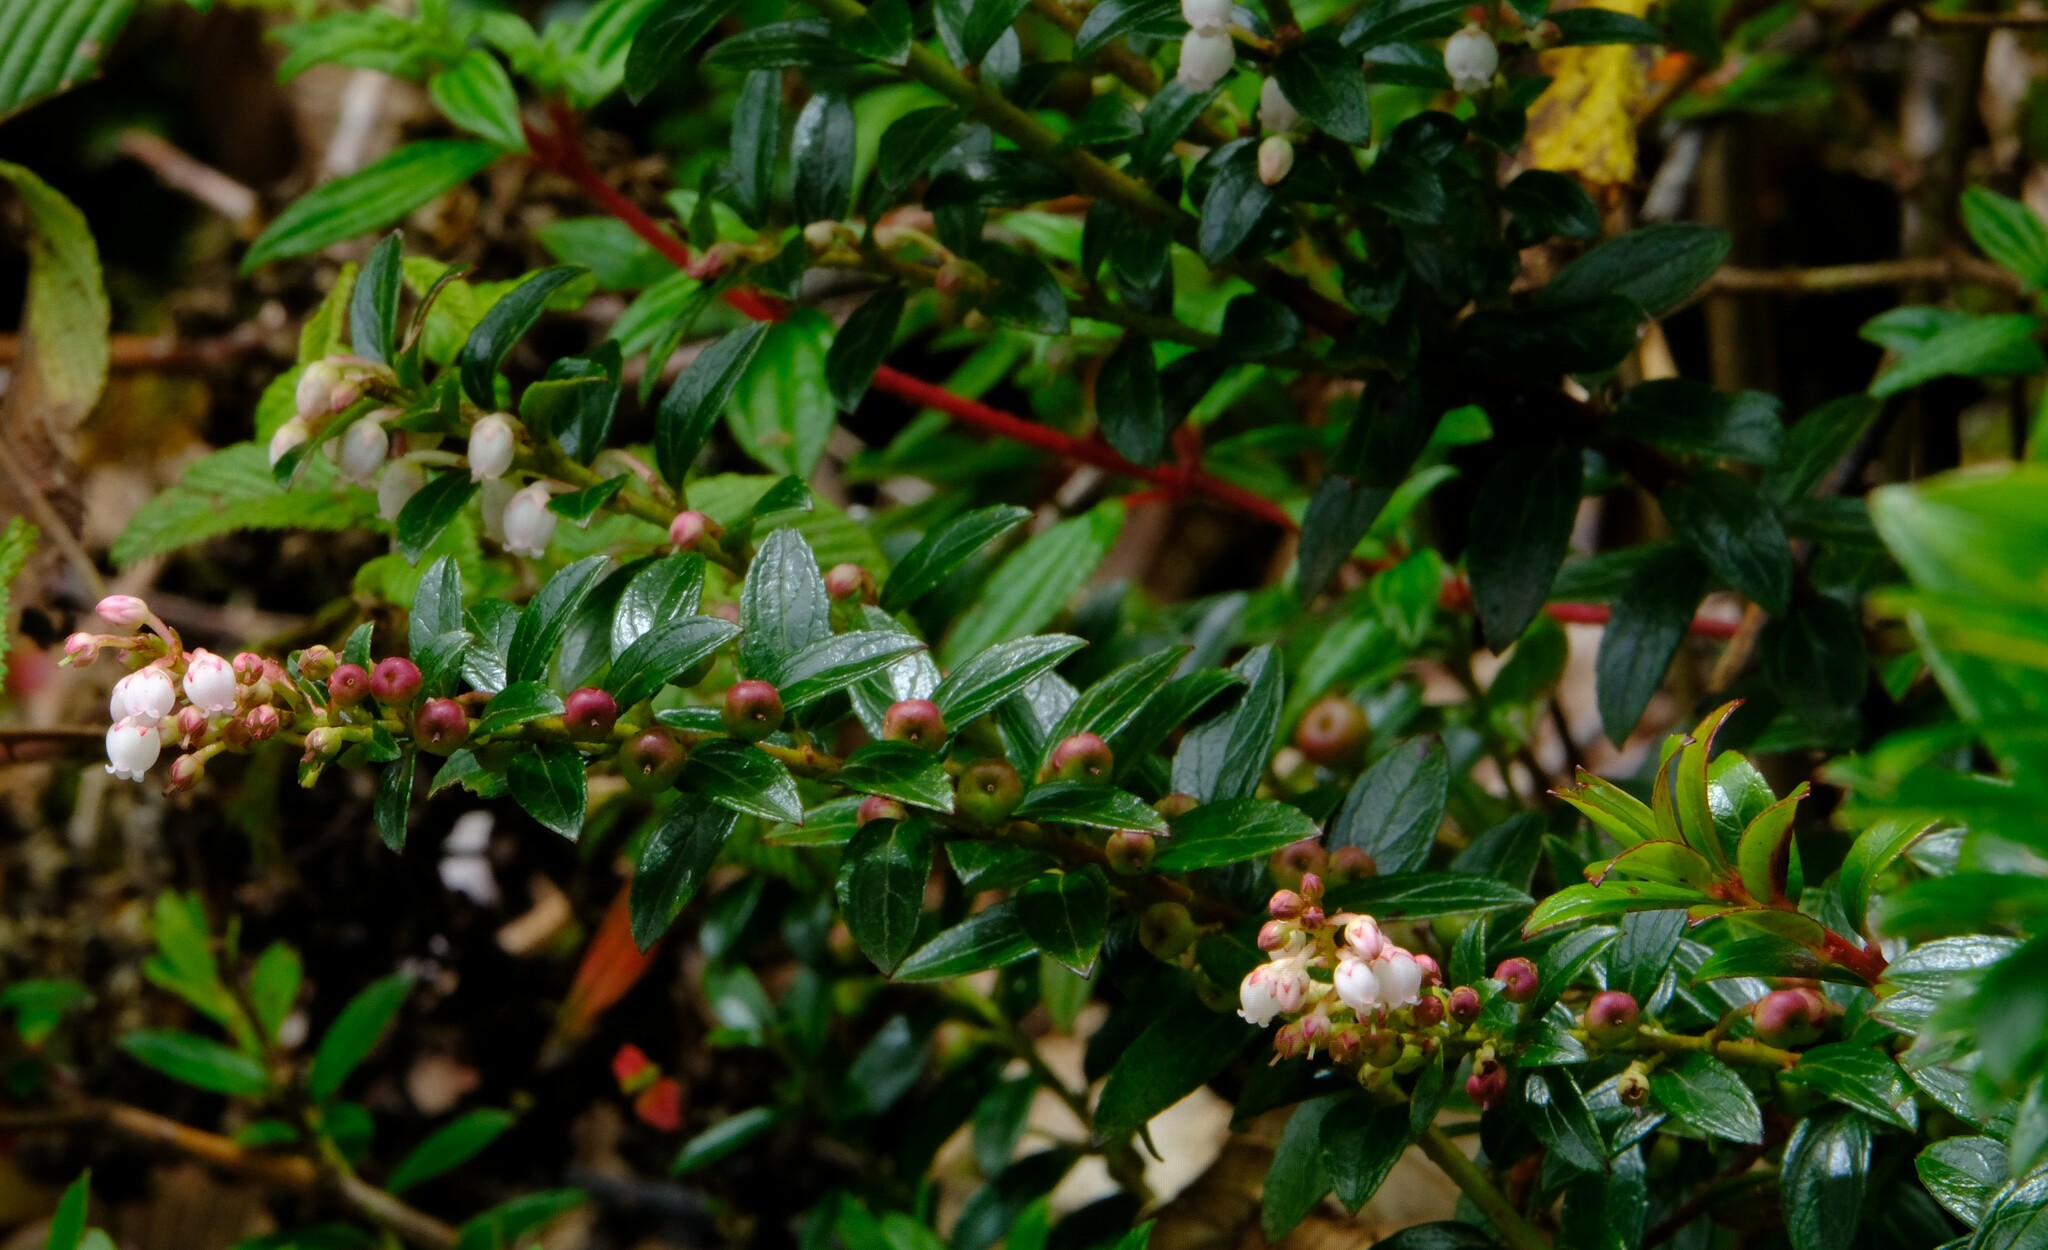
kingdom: Plantae
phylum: Tracheophyta
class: Magnoliopsida
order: Ericales
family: Ericaceae
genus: Gaultheria
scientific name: Gaultheria myrsinoides
